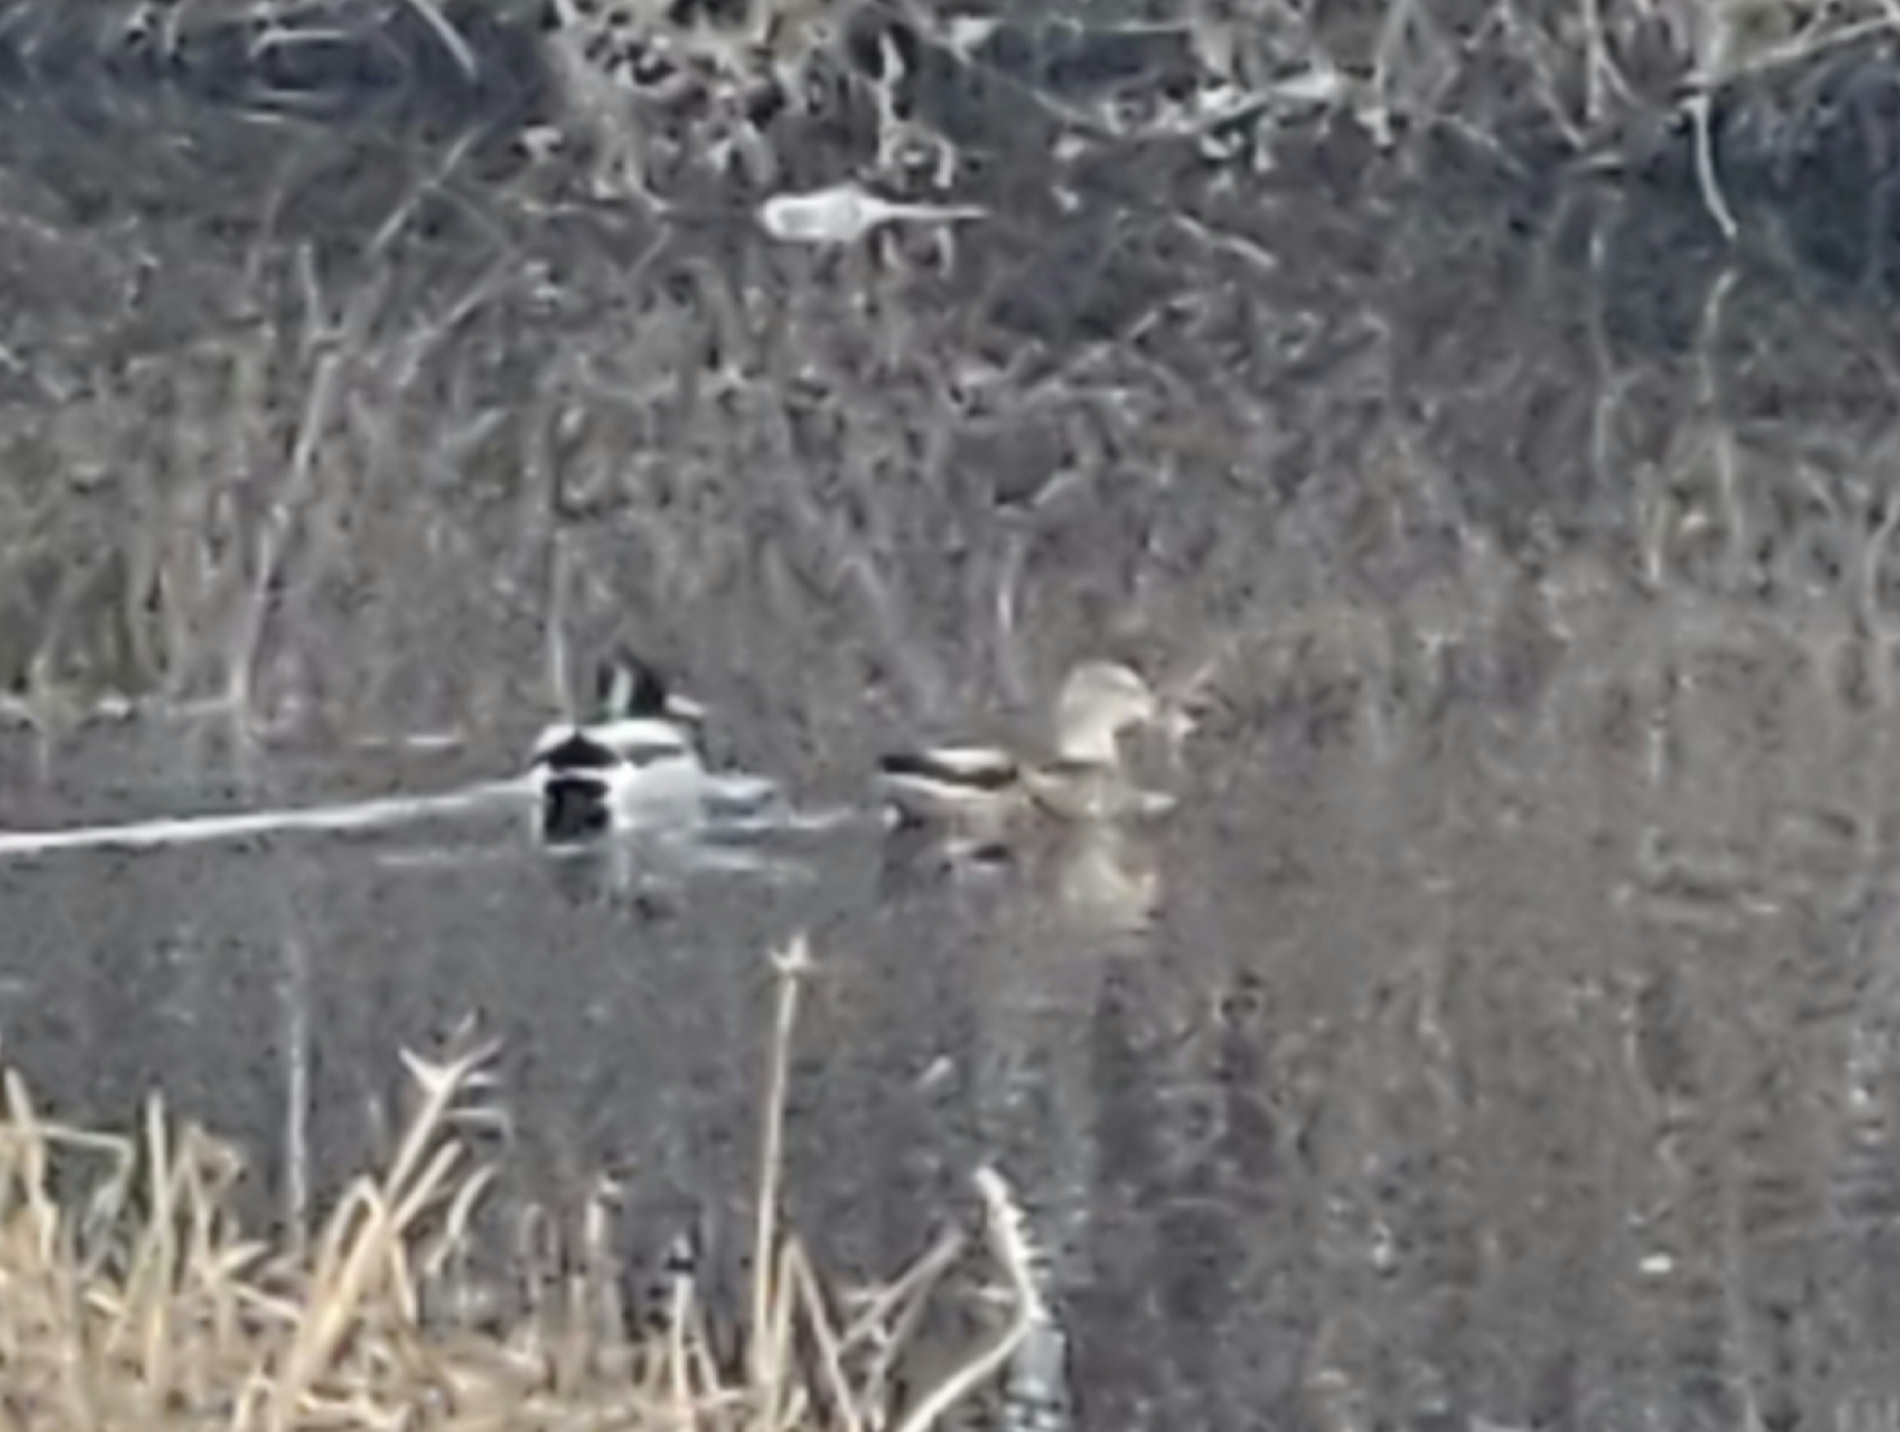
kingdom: Animalia
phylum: Chordata
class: Aves
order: Anseriformes
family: Anatidae
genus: Anas
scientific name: Anas platyrhynchos
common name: Mallard
